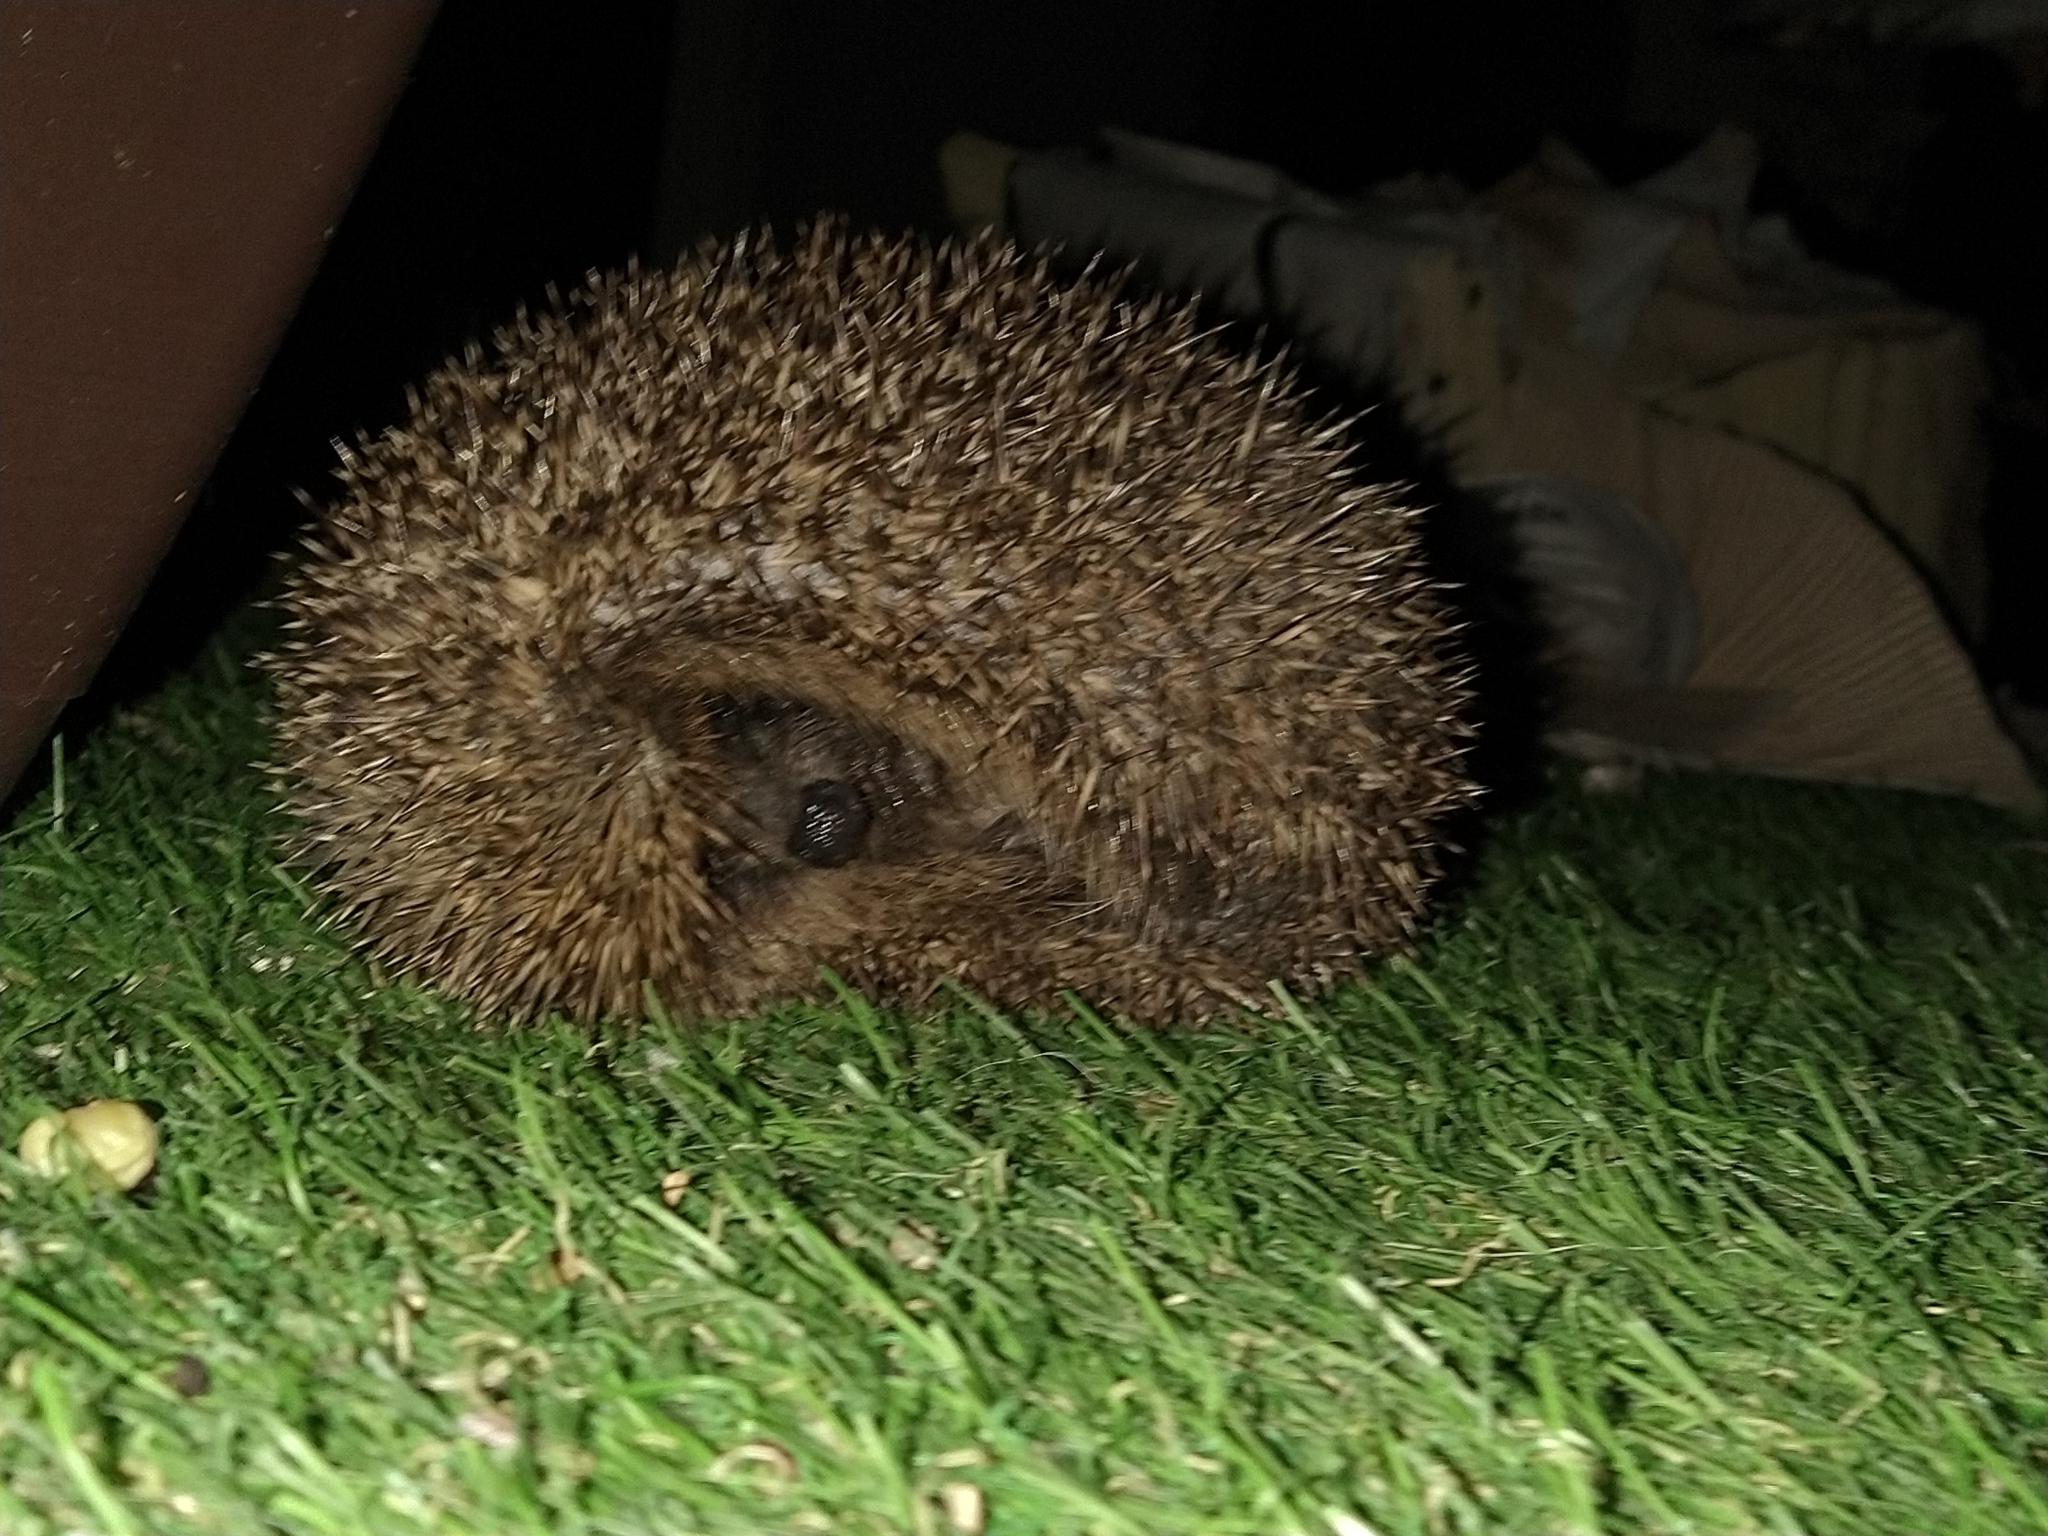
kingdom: Animalia
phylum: Chordata
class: Mammalia
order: Erinaceomorpha
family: Erinaceidae
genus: Erinaceus
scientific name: Erinaceus europaeus
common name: West european hedgehog
